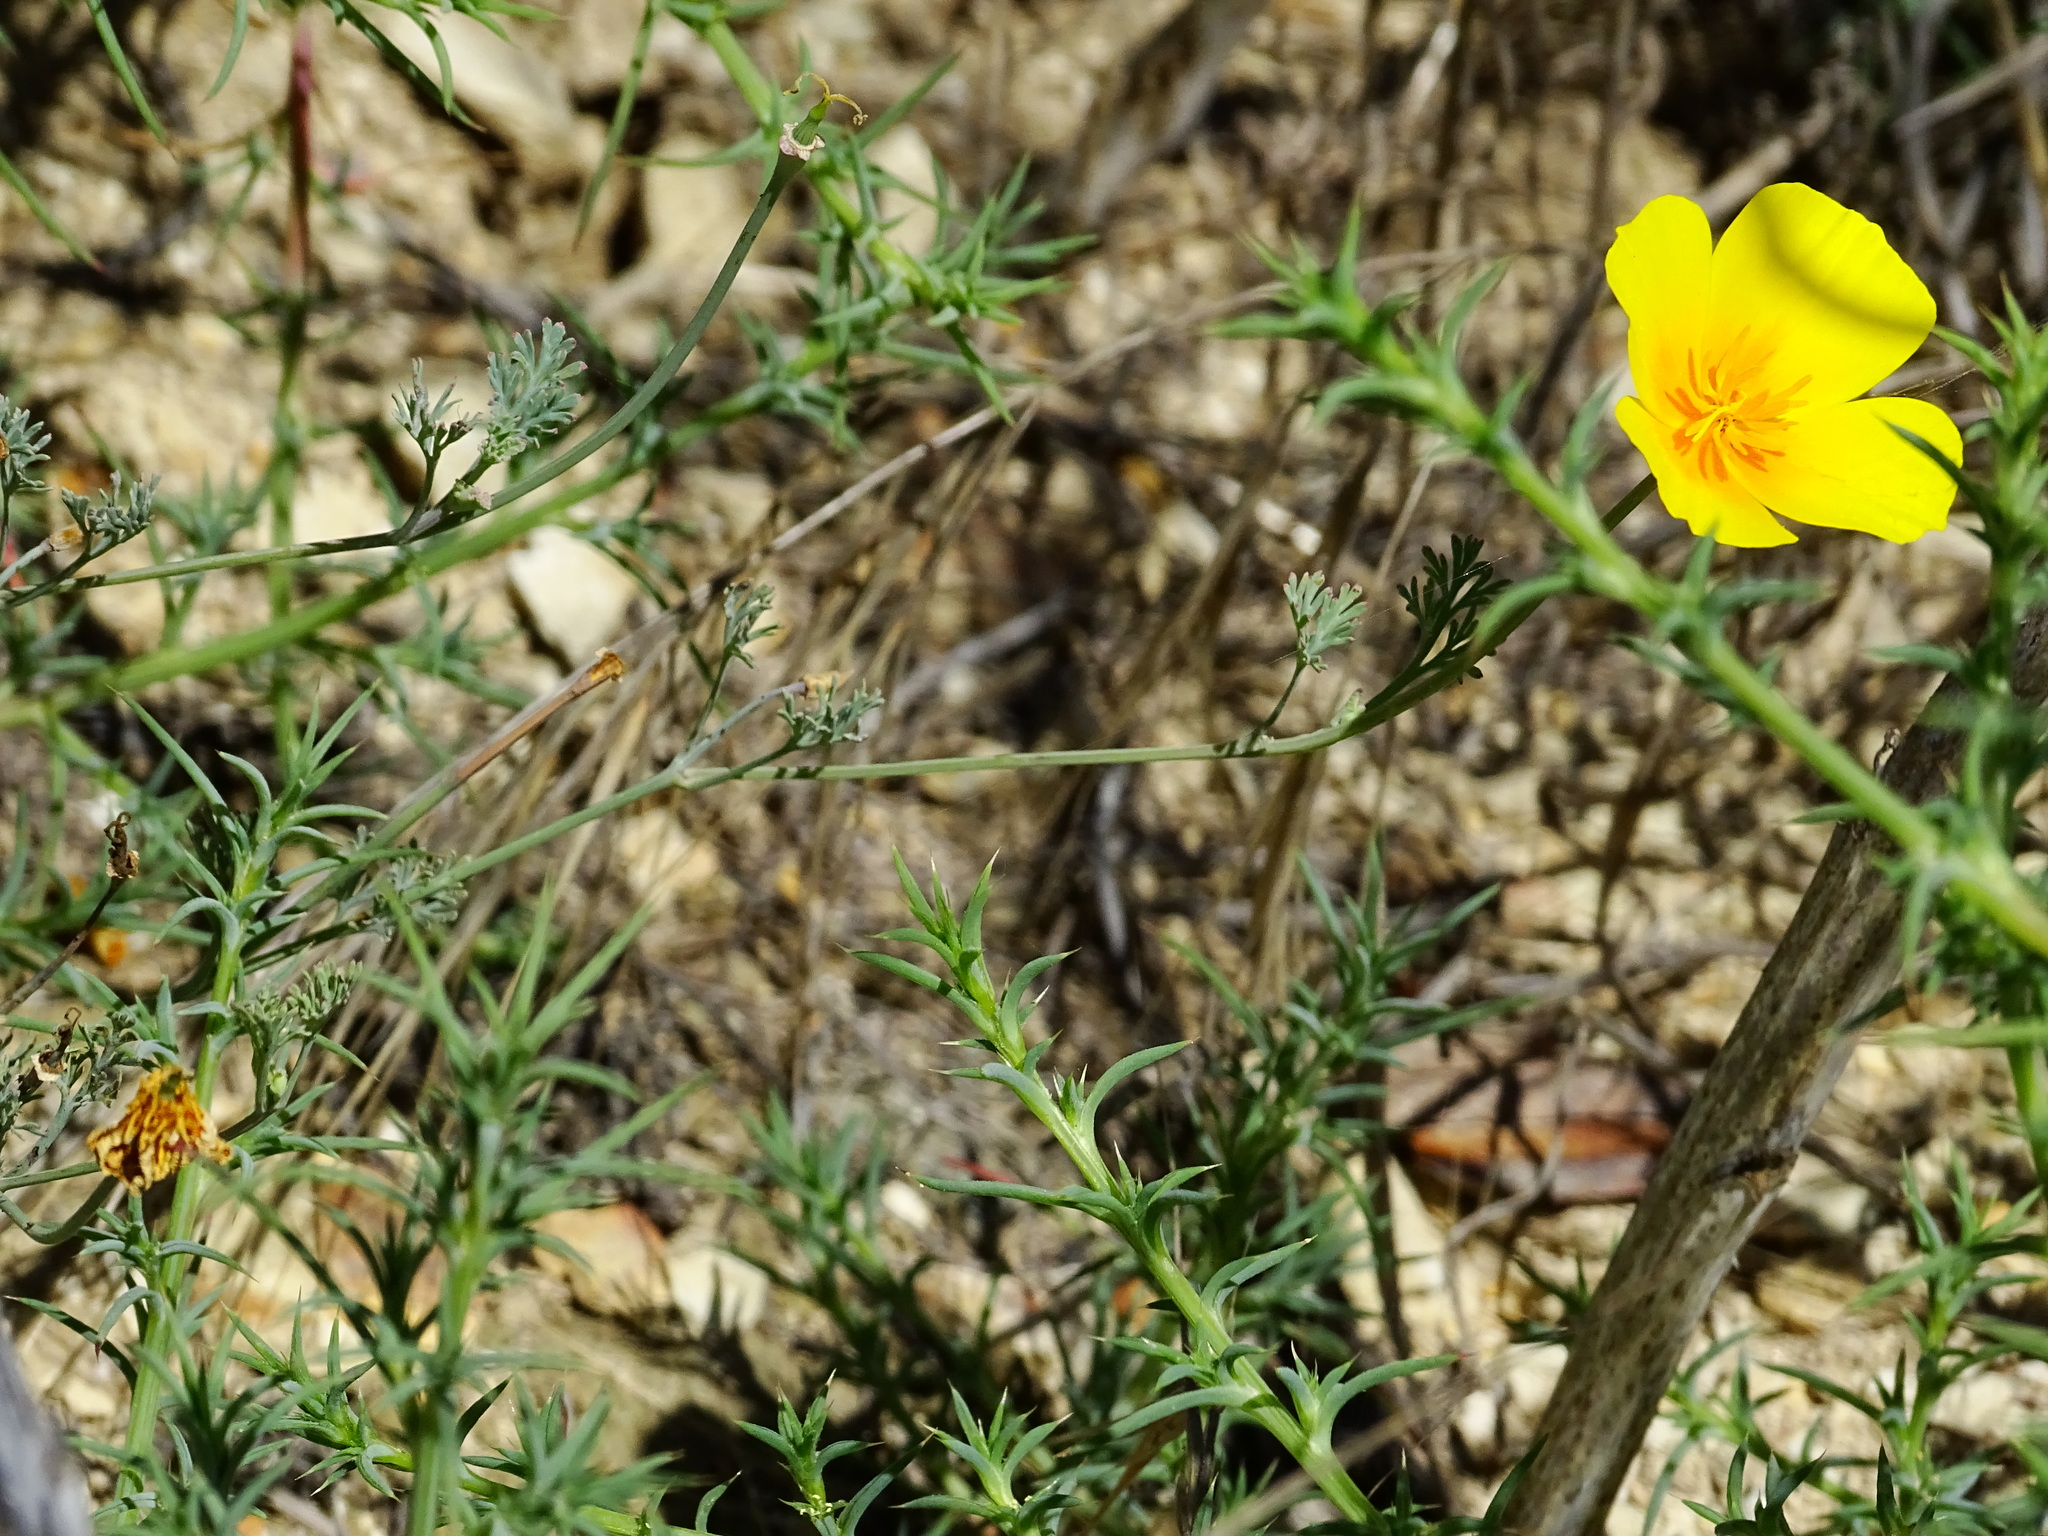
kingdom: Plantae
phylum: Tracheophyta
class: Magnoliopsida
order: Ranunculales
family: Papaveraceae
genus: Eschscholzia
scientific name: Eschscholzia californica
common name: California poppy
